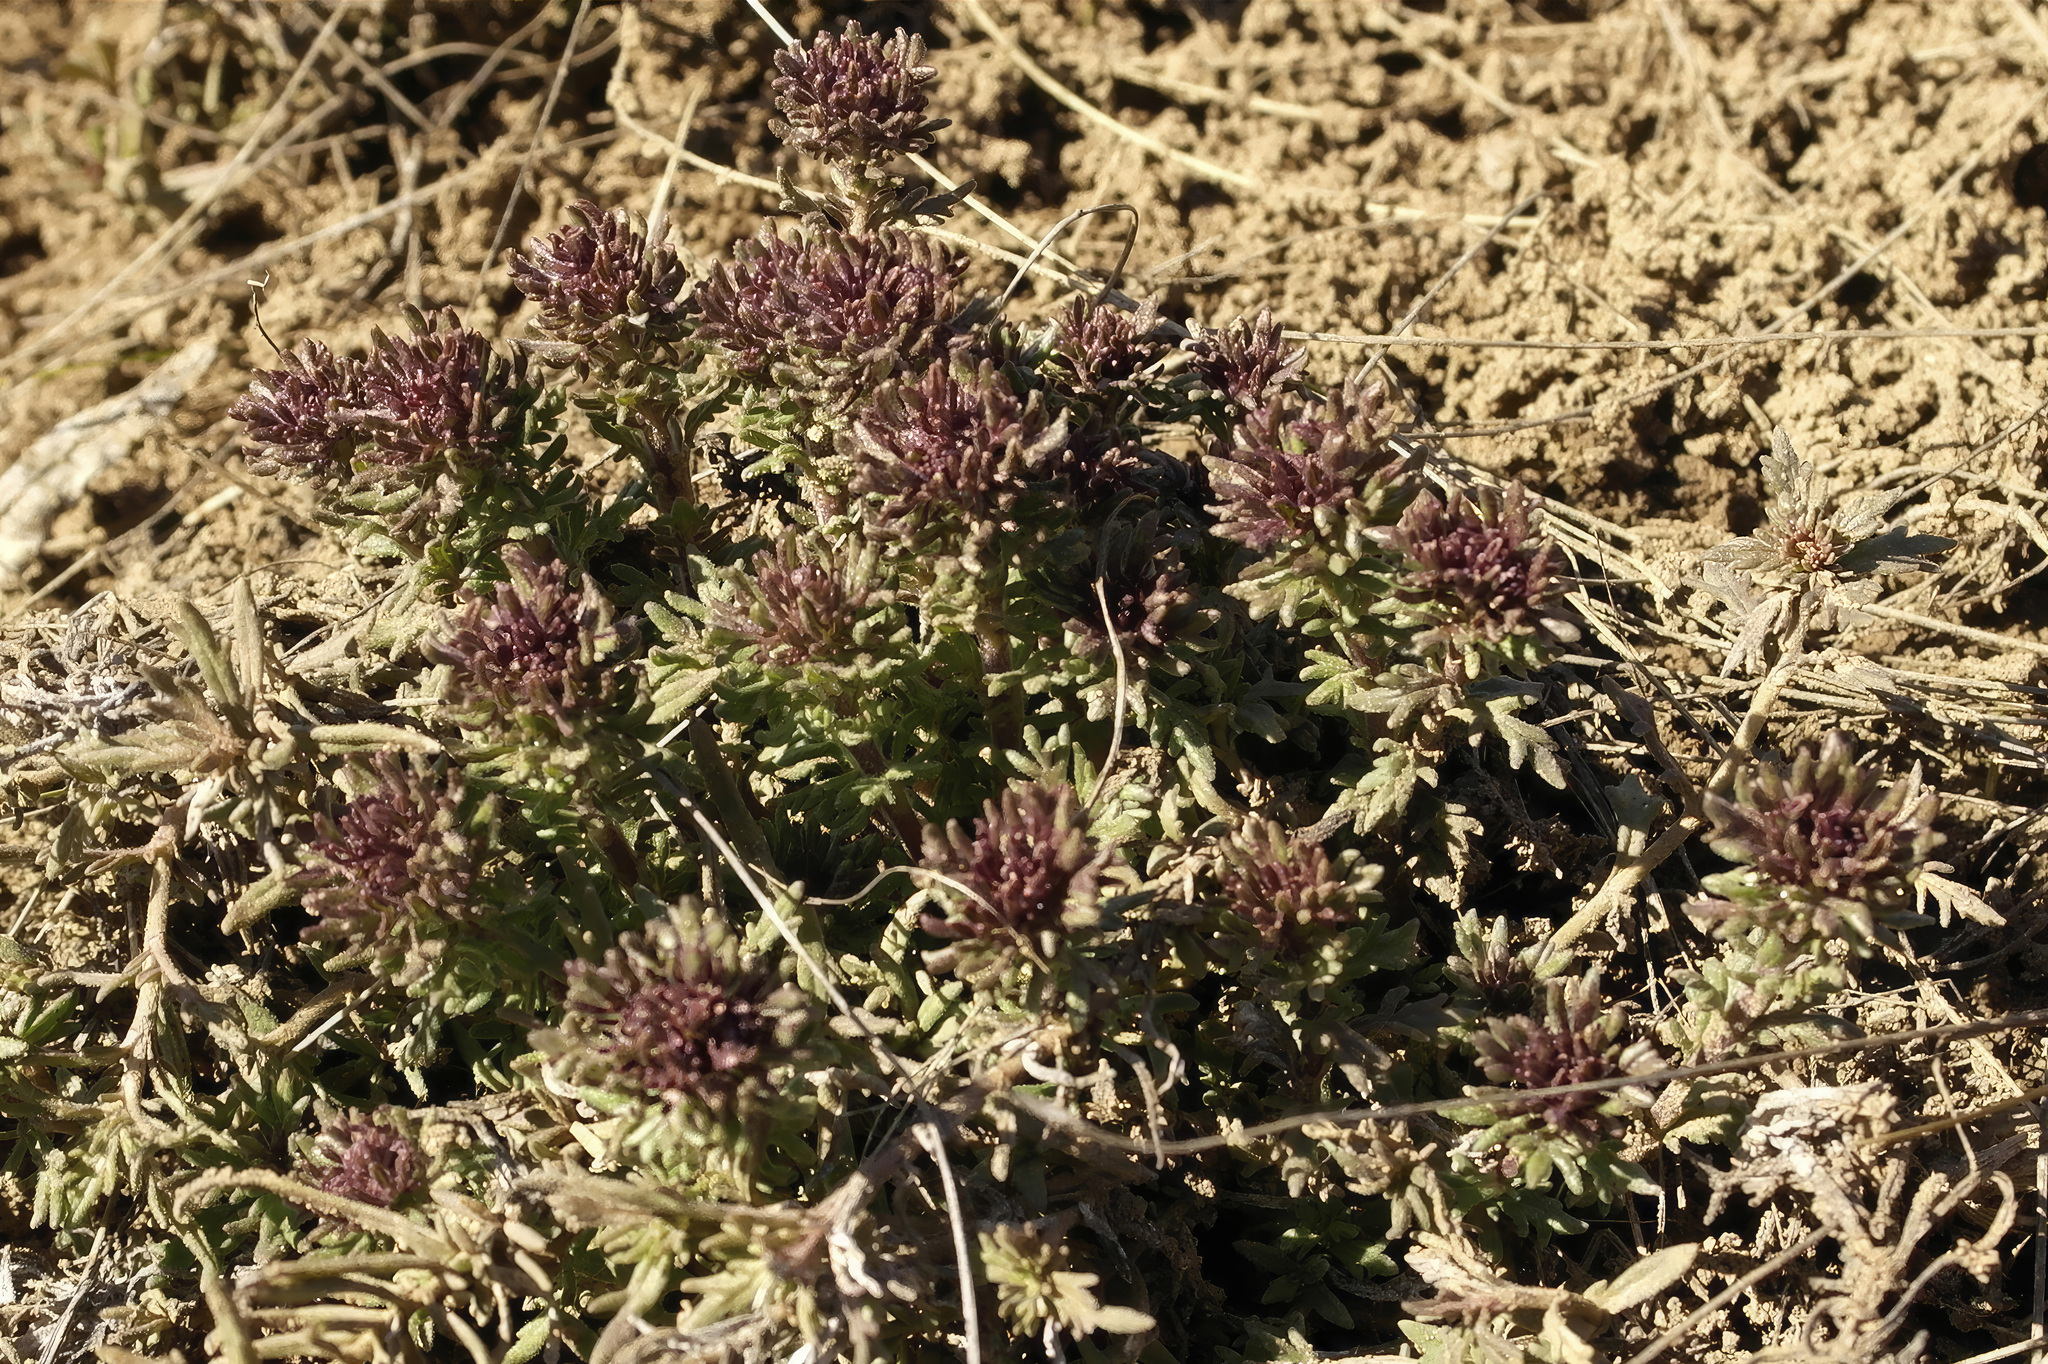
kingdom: Plantae
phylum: Tracheophyta
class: Magnoliopsida
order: Lamiales
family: Plantaginaceae
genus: Veronica
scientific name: Veronica capsellicarpa
